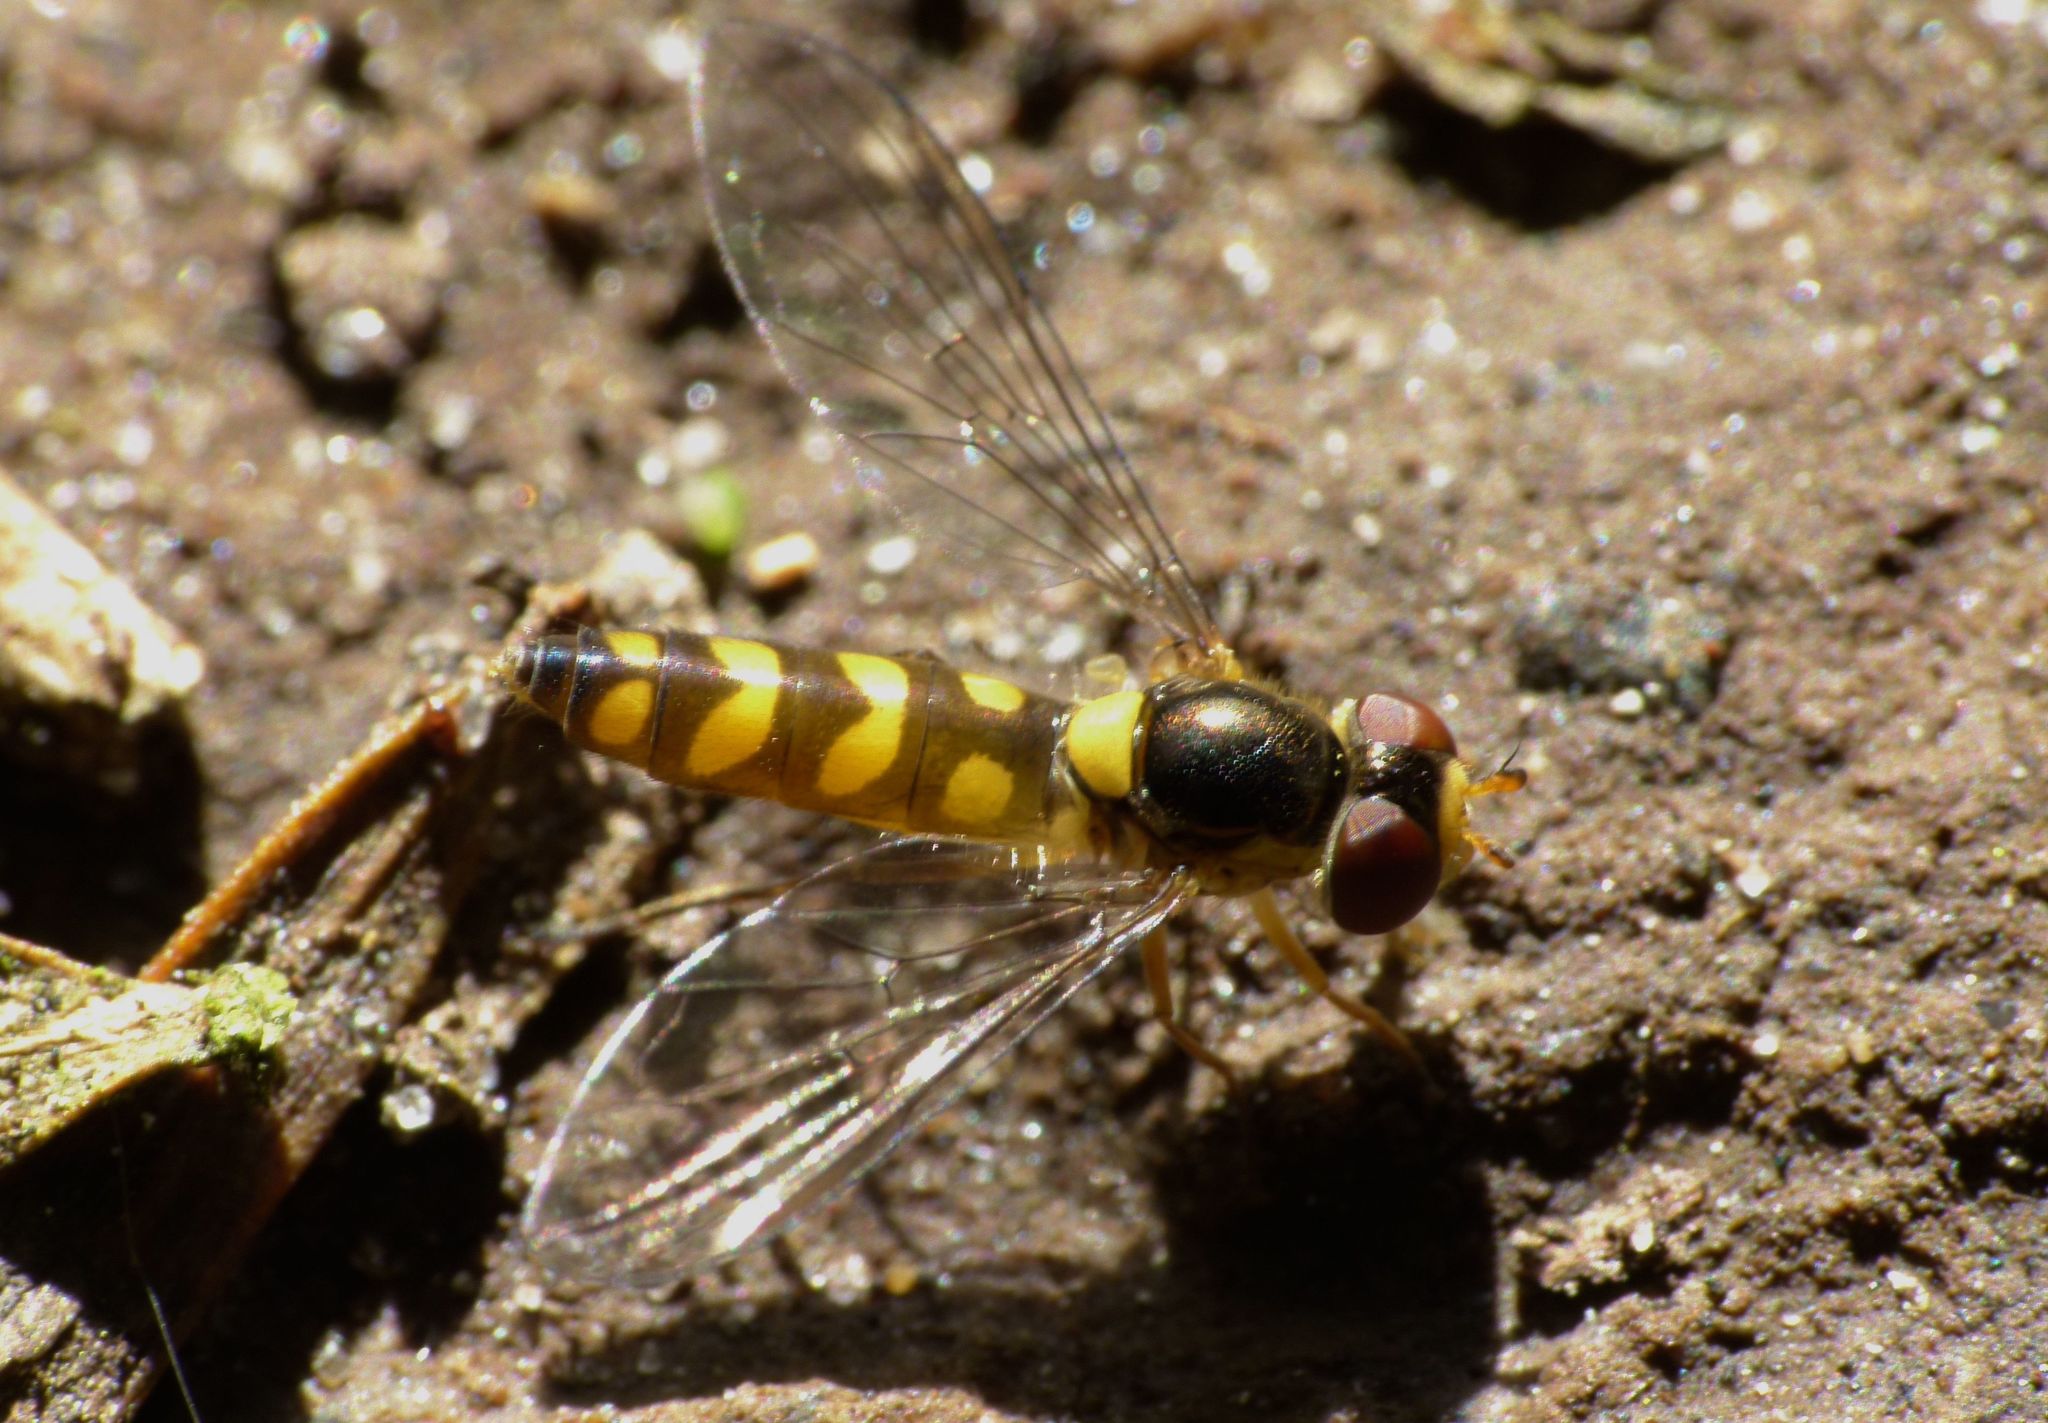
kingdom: Animalia
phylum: Arthropoda
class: Insecta
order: Diptera
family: Syrphidae
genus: Allograpta
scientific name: Allograpta ropala
